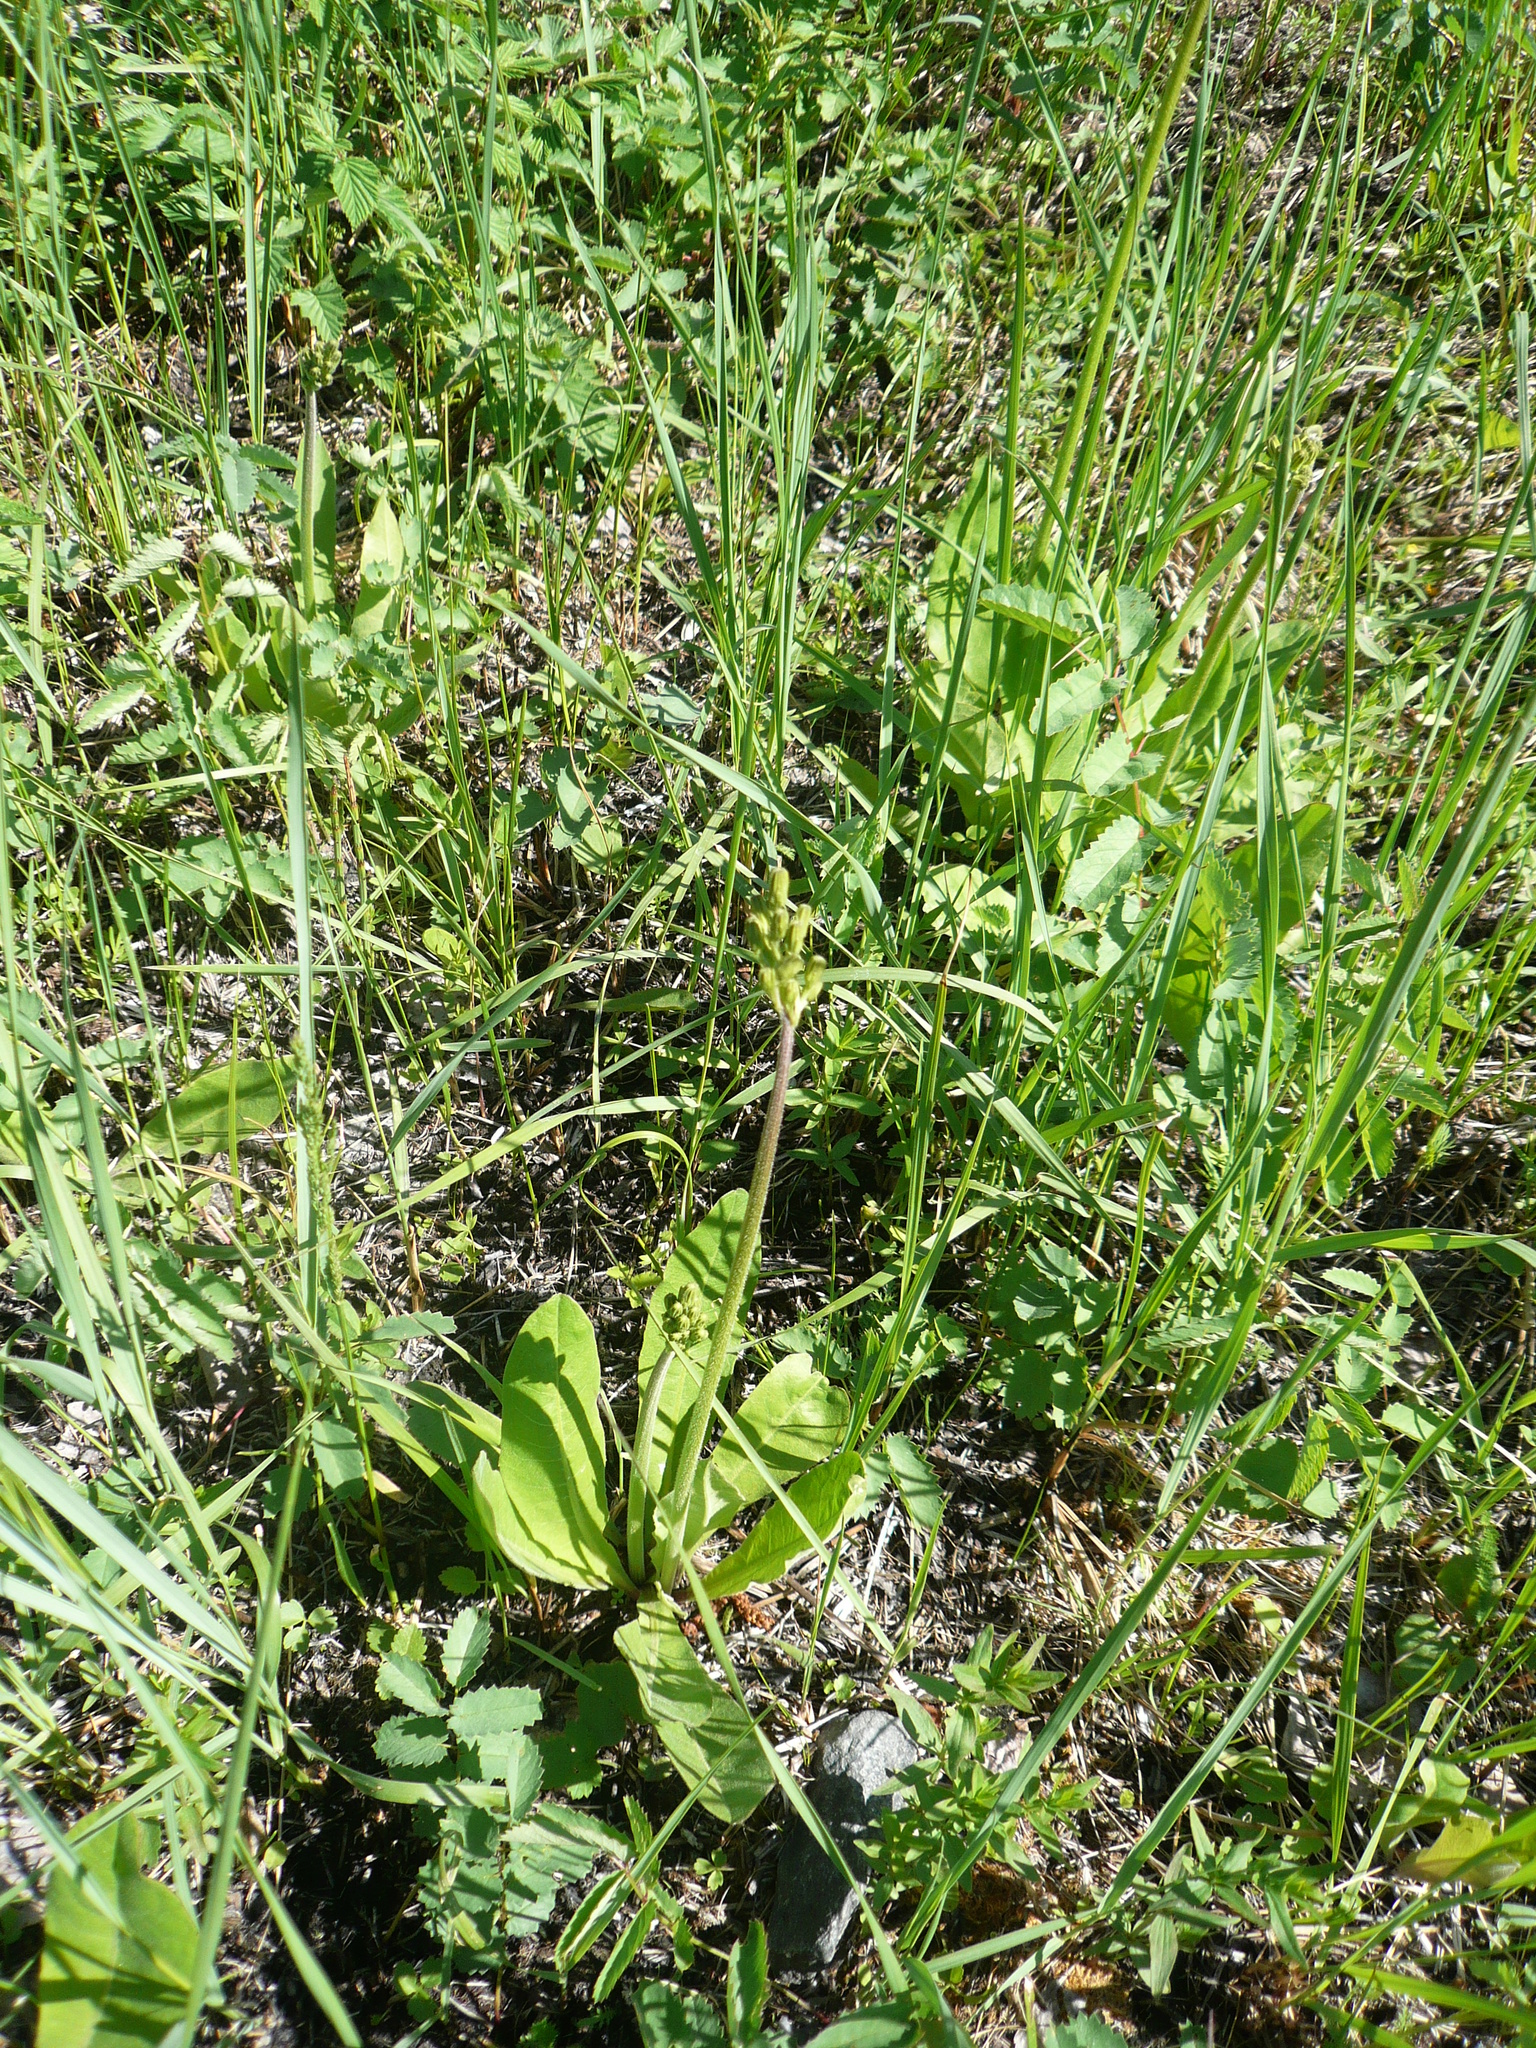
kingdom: Plantae
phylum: Tracheophyta
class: Magnoliopsida
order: Asterales
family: Asteraceae
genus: Crepis
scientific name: Crepis praemorsa
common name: Leafless hawk's-beard
